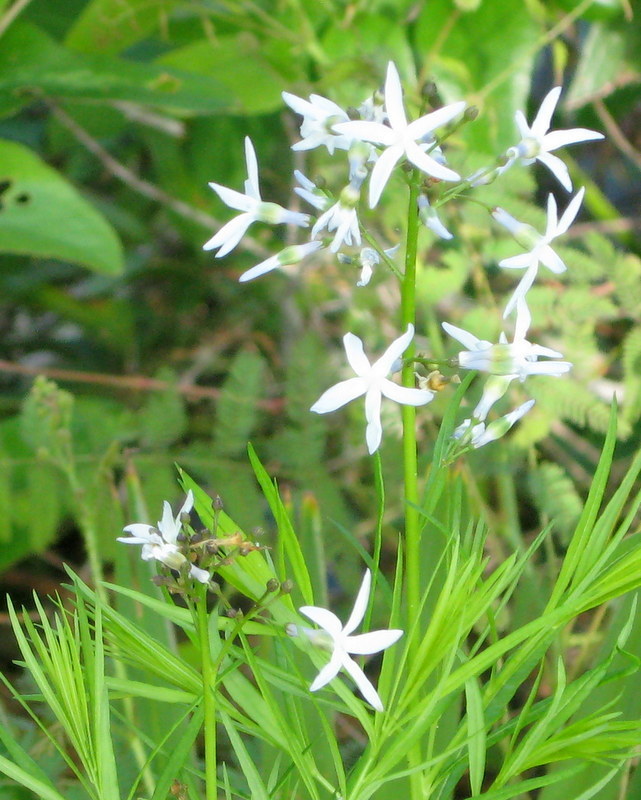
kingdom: Plantae
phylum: Tracheophyta
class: Magnoliopsida
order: Gentianales
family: Apocynaceae
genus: Amsonia
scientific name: Amsonia ciliata
